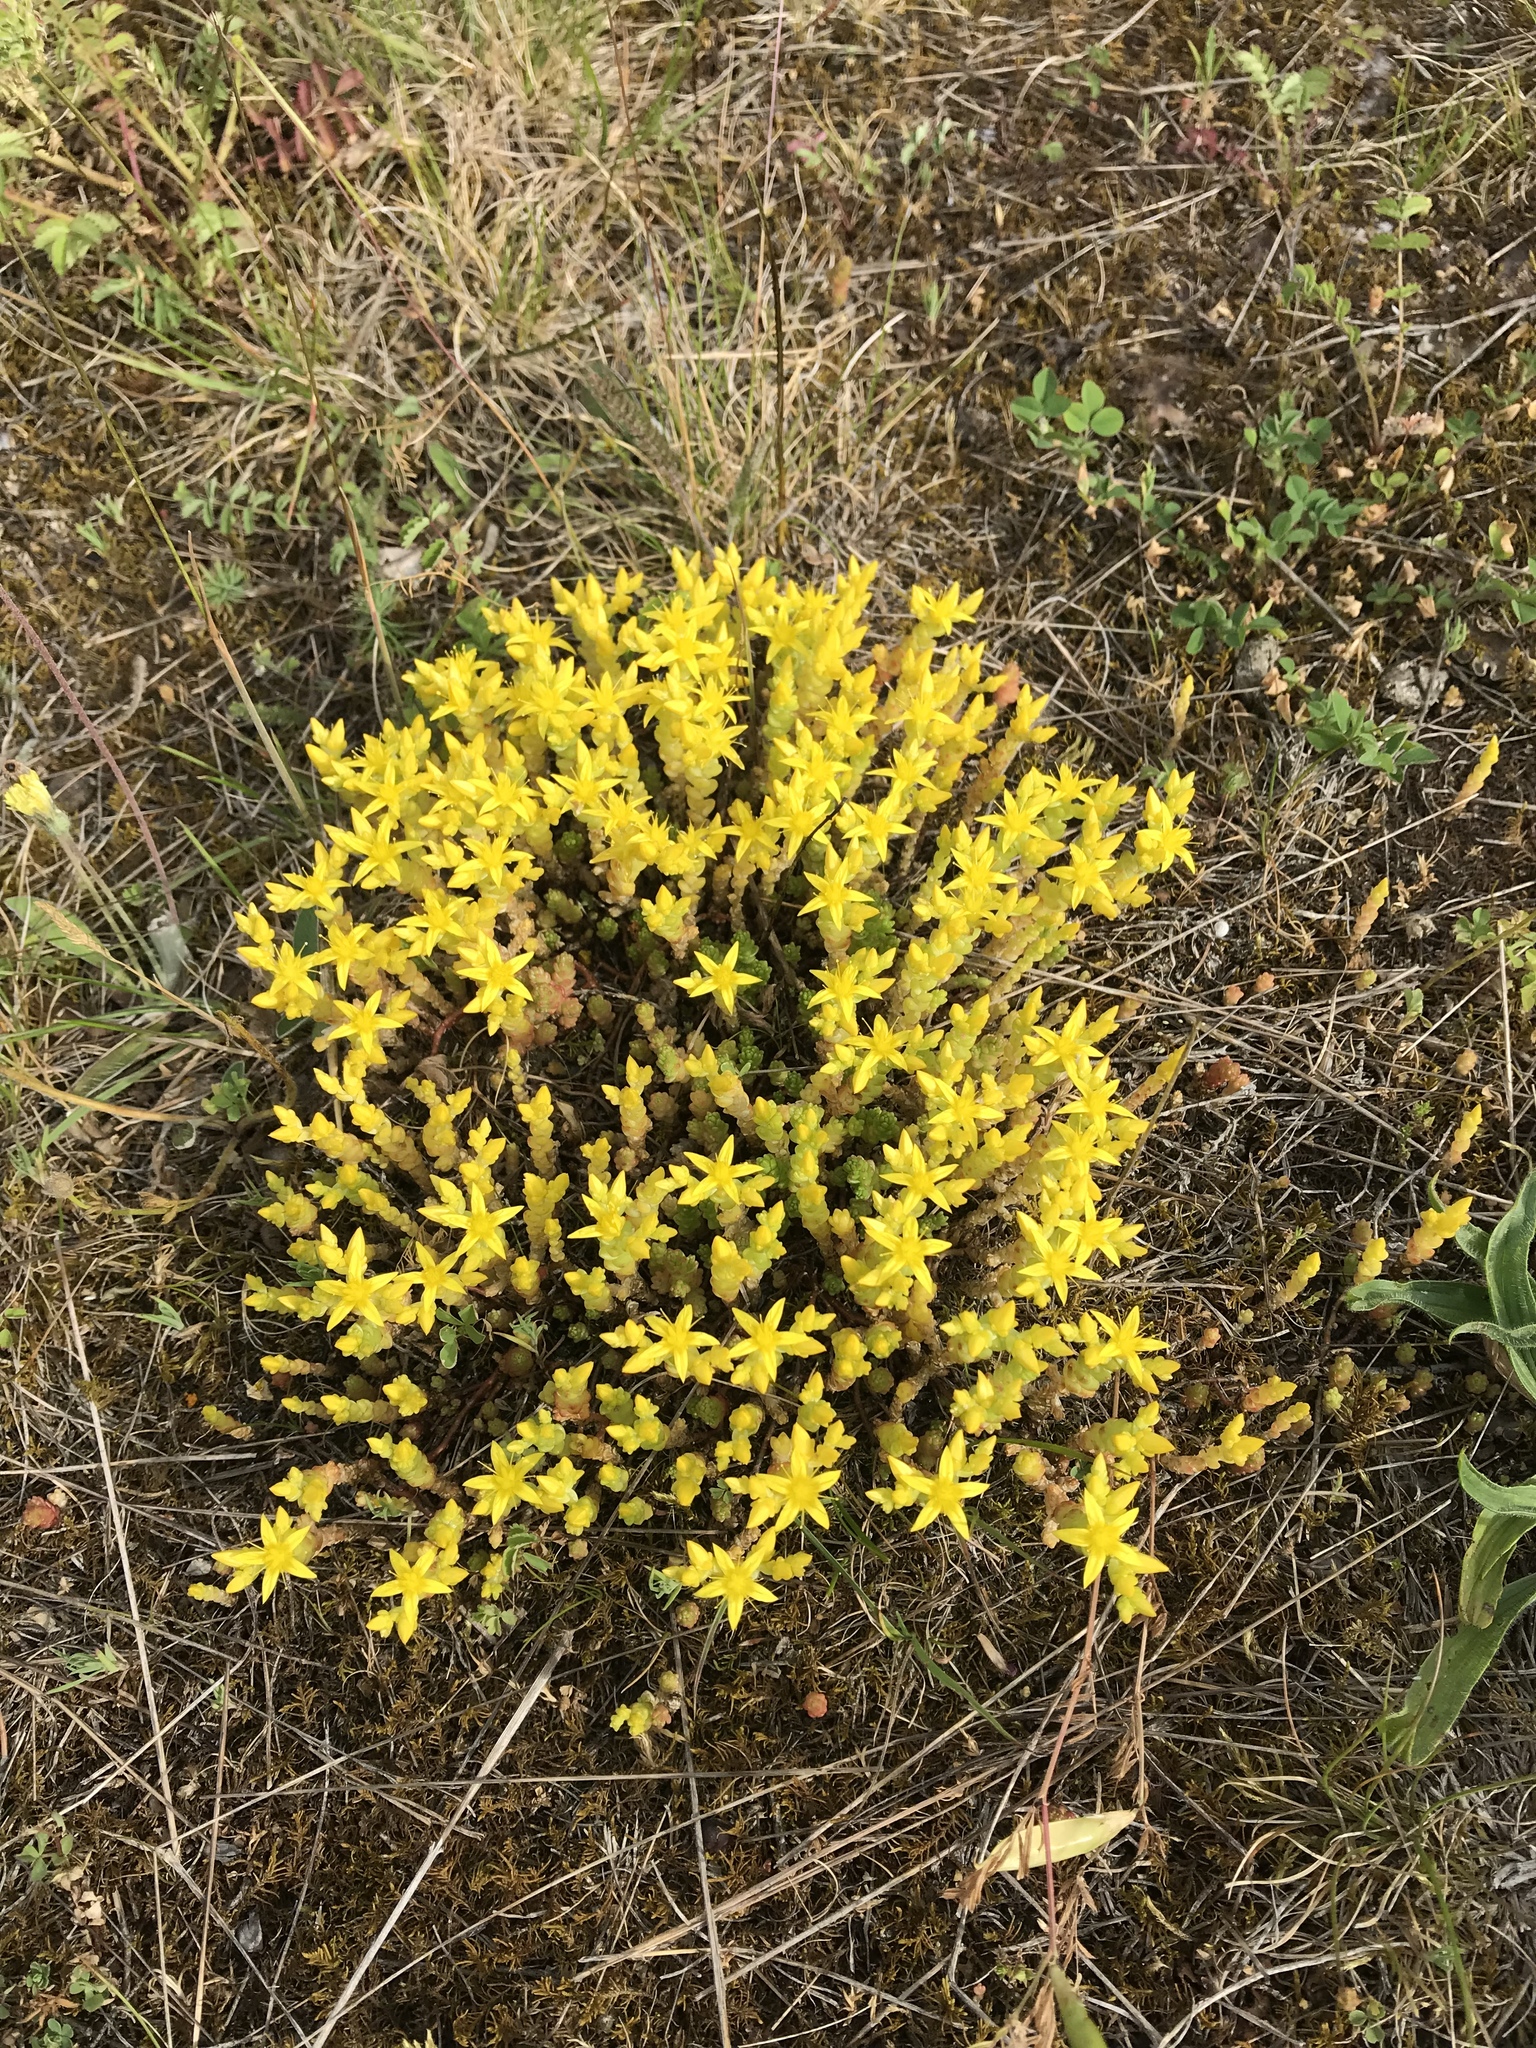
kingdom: Plantae
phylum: Tracheophyta
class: Magnoliopsida
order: Saxifragales
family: Crassulaceae
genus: Sedum
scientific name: Sedum acre
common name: Biting stonecrop
